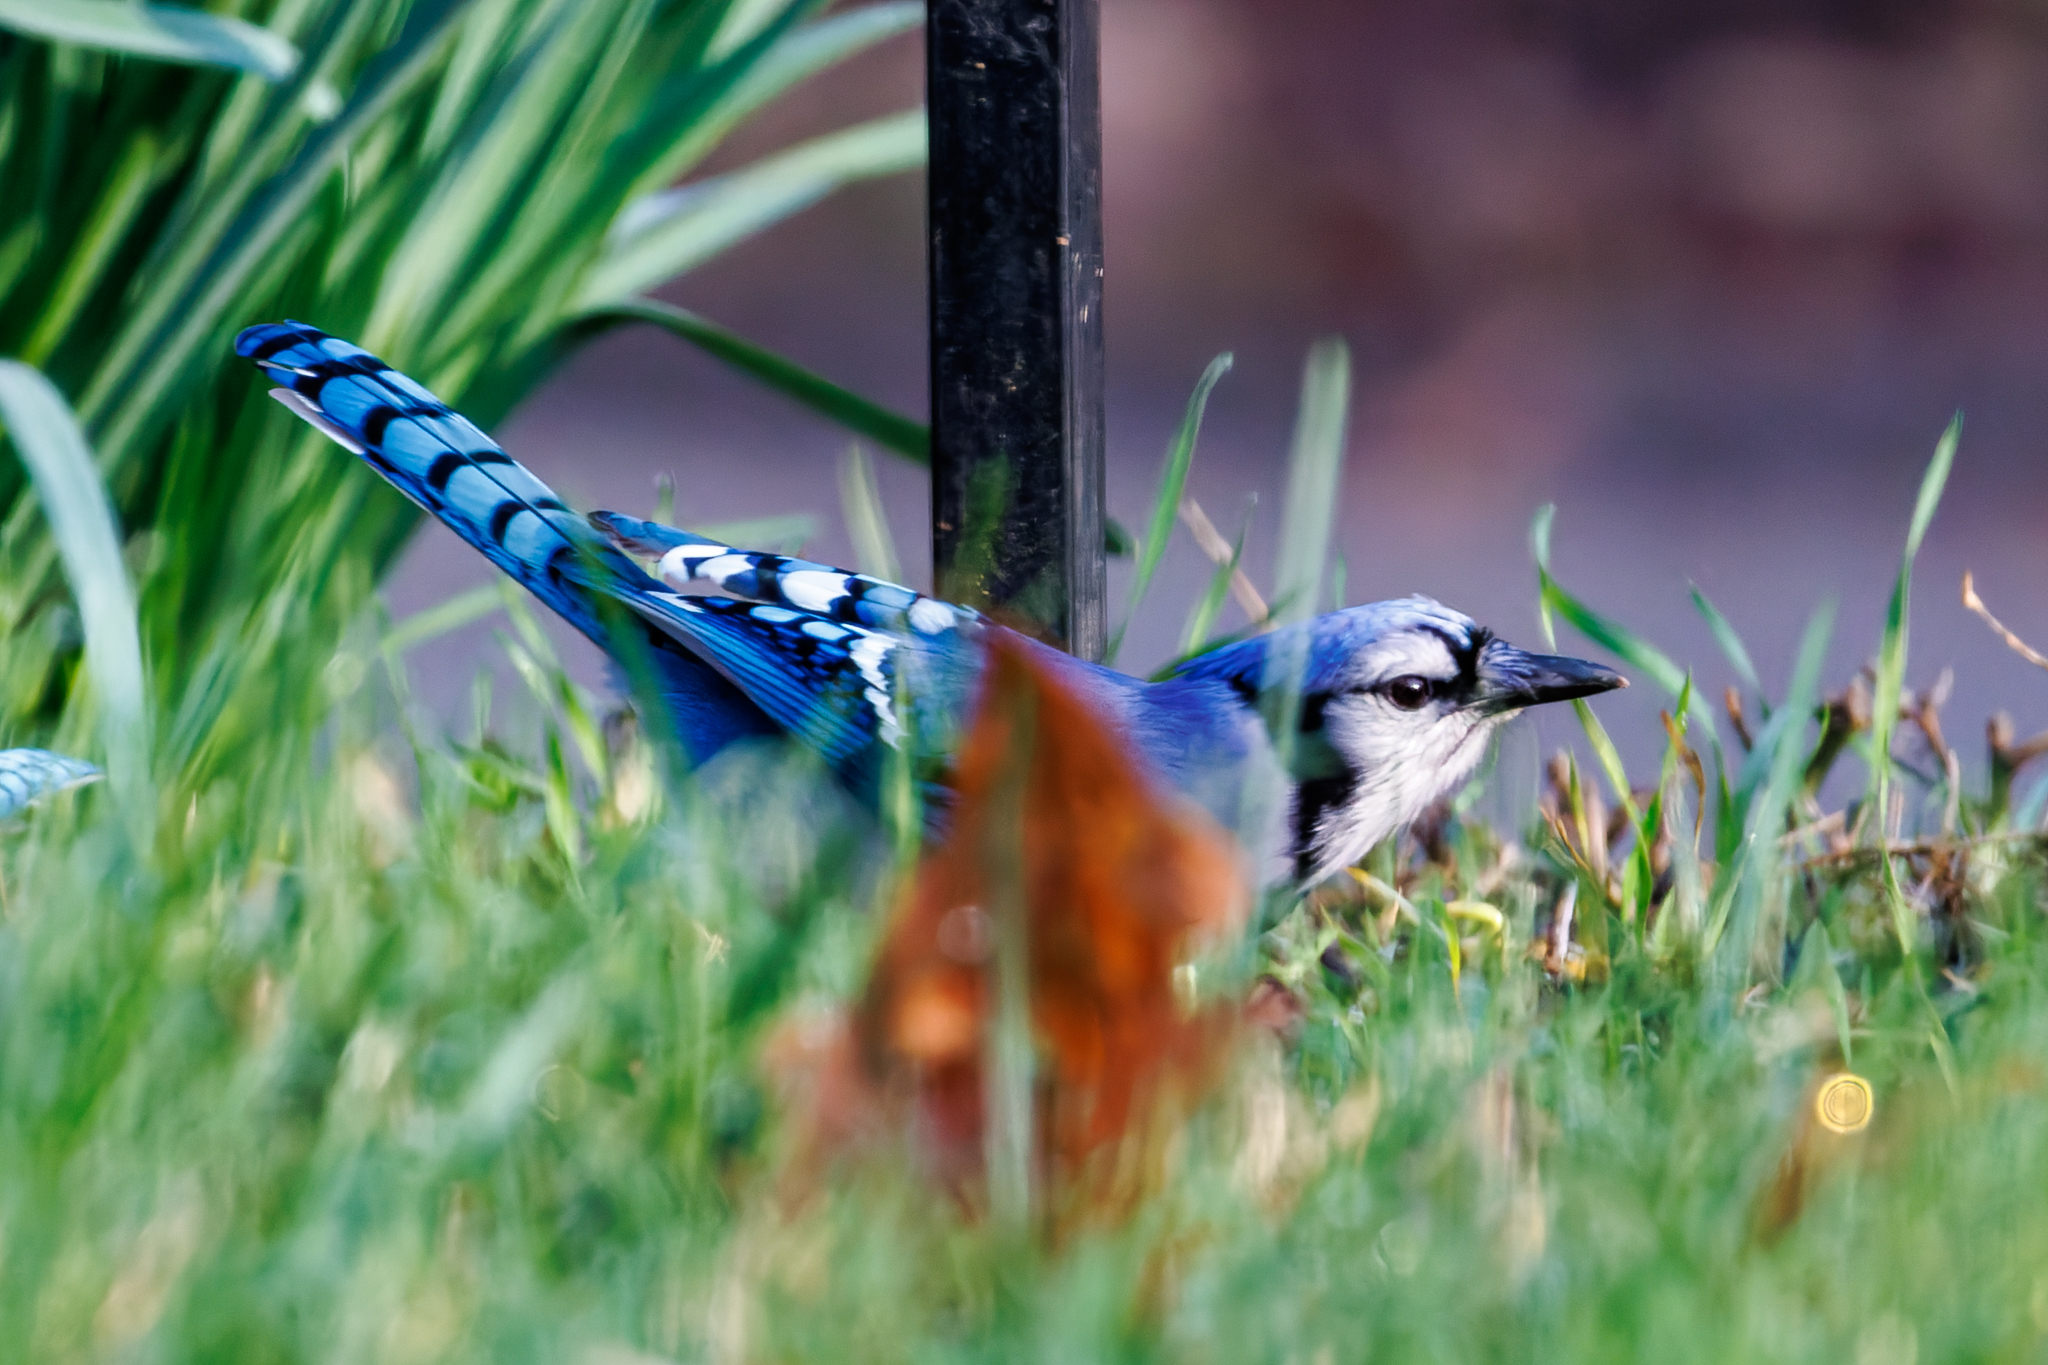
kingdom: Animalia
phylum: Chordata
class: Aves
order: Passeriformes
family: Corvidae
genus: Cyanocitta
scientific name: Cyanocitta cristata
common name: Blue jay
